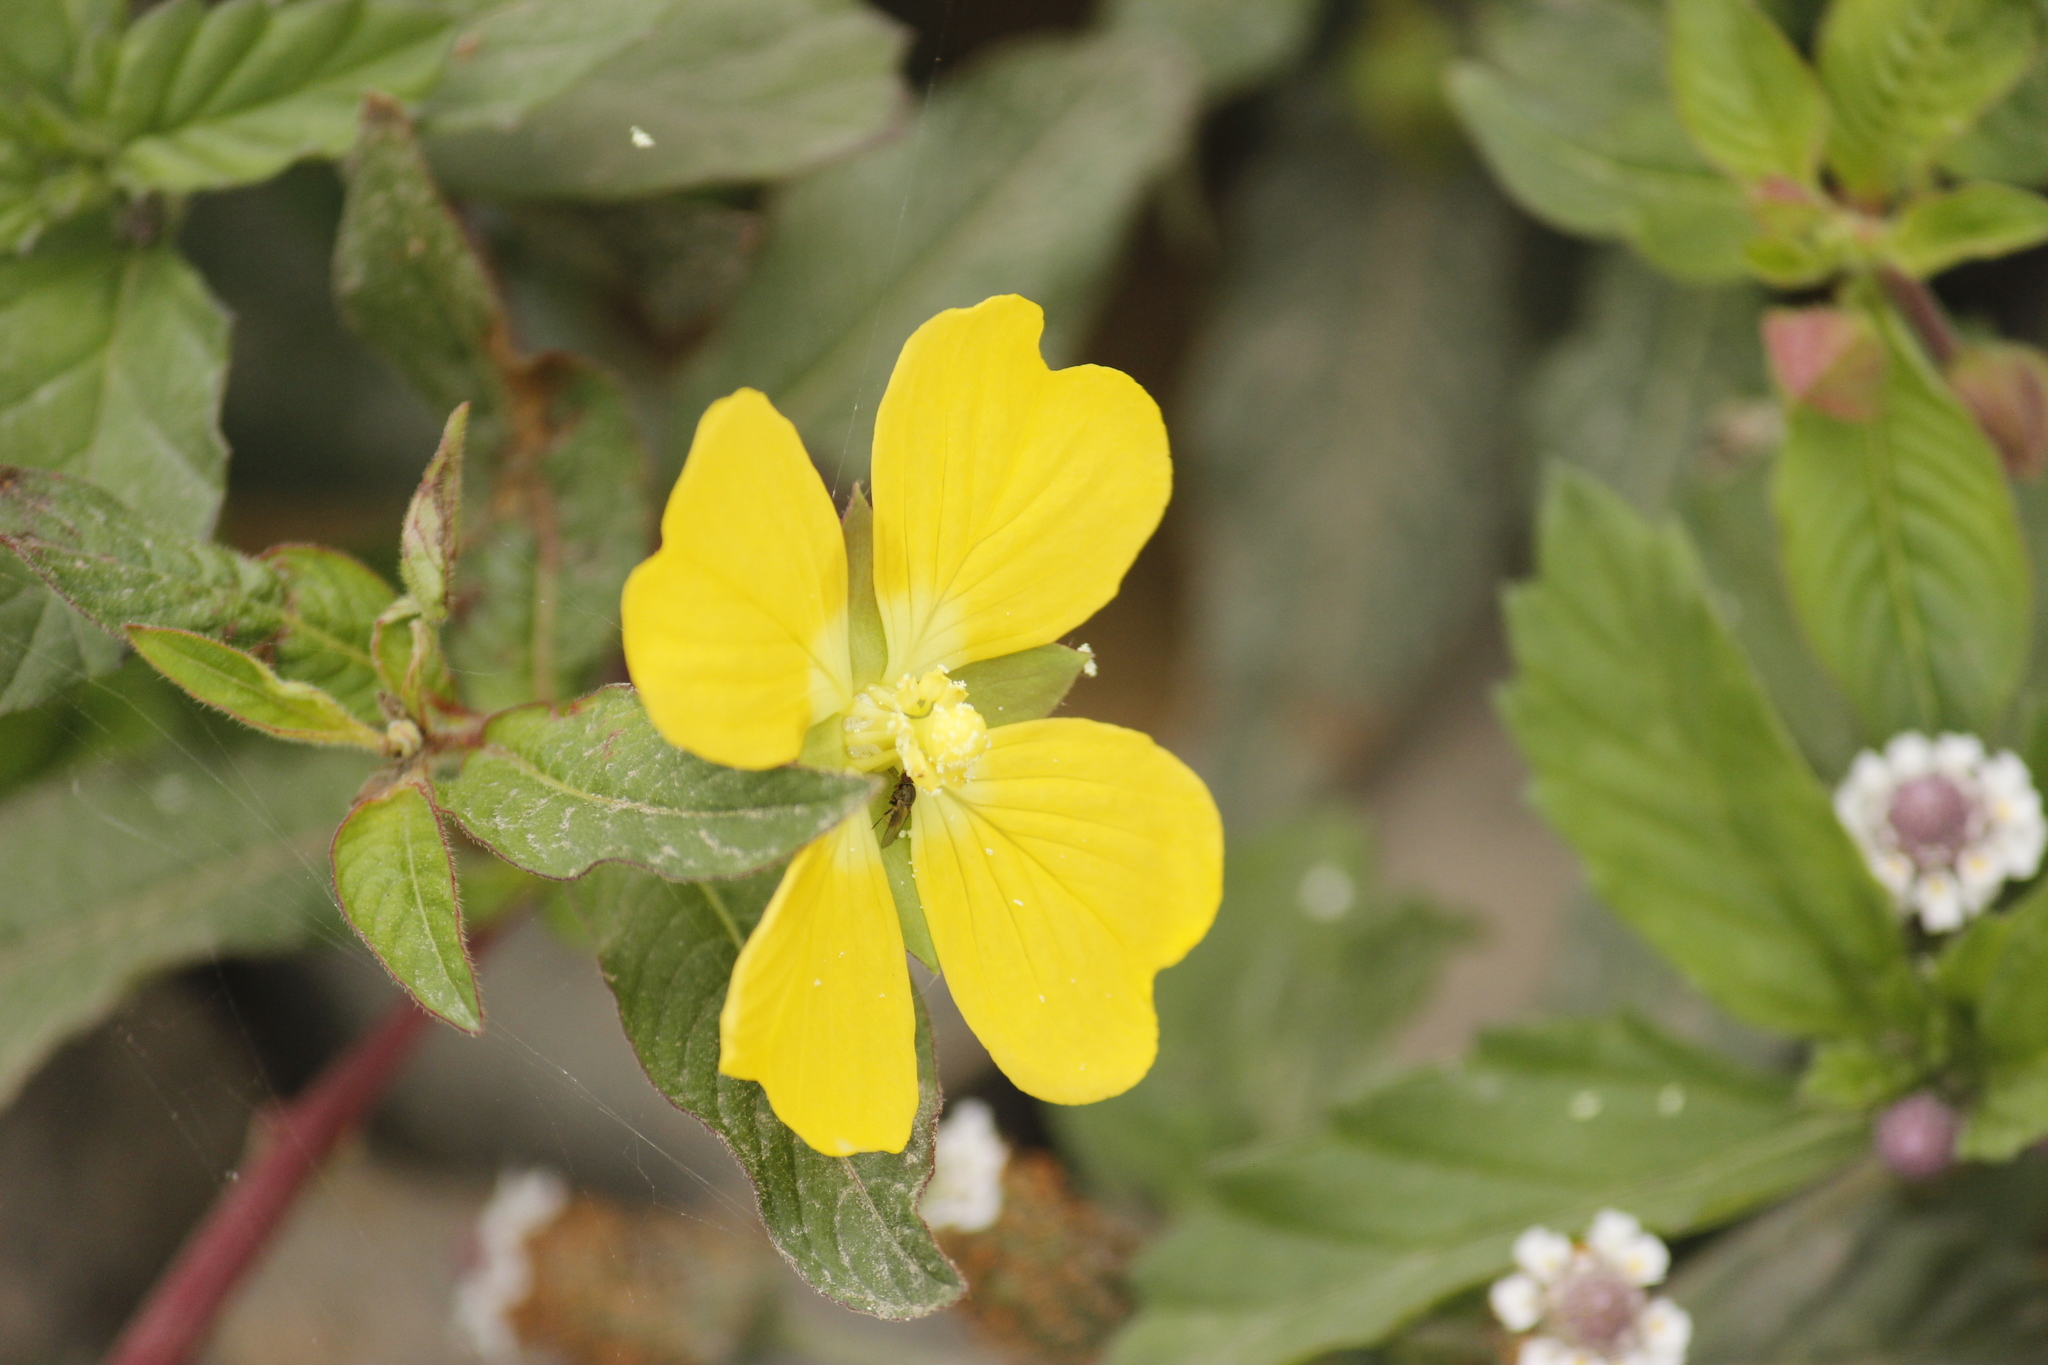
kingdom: Plantae
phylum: Tracheophyta
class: Magnoliopsida
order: Myrtales
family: Onagraceae
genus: Ludwigia
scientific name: Ludwigia octovalvis
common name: Water-primrose
